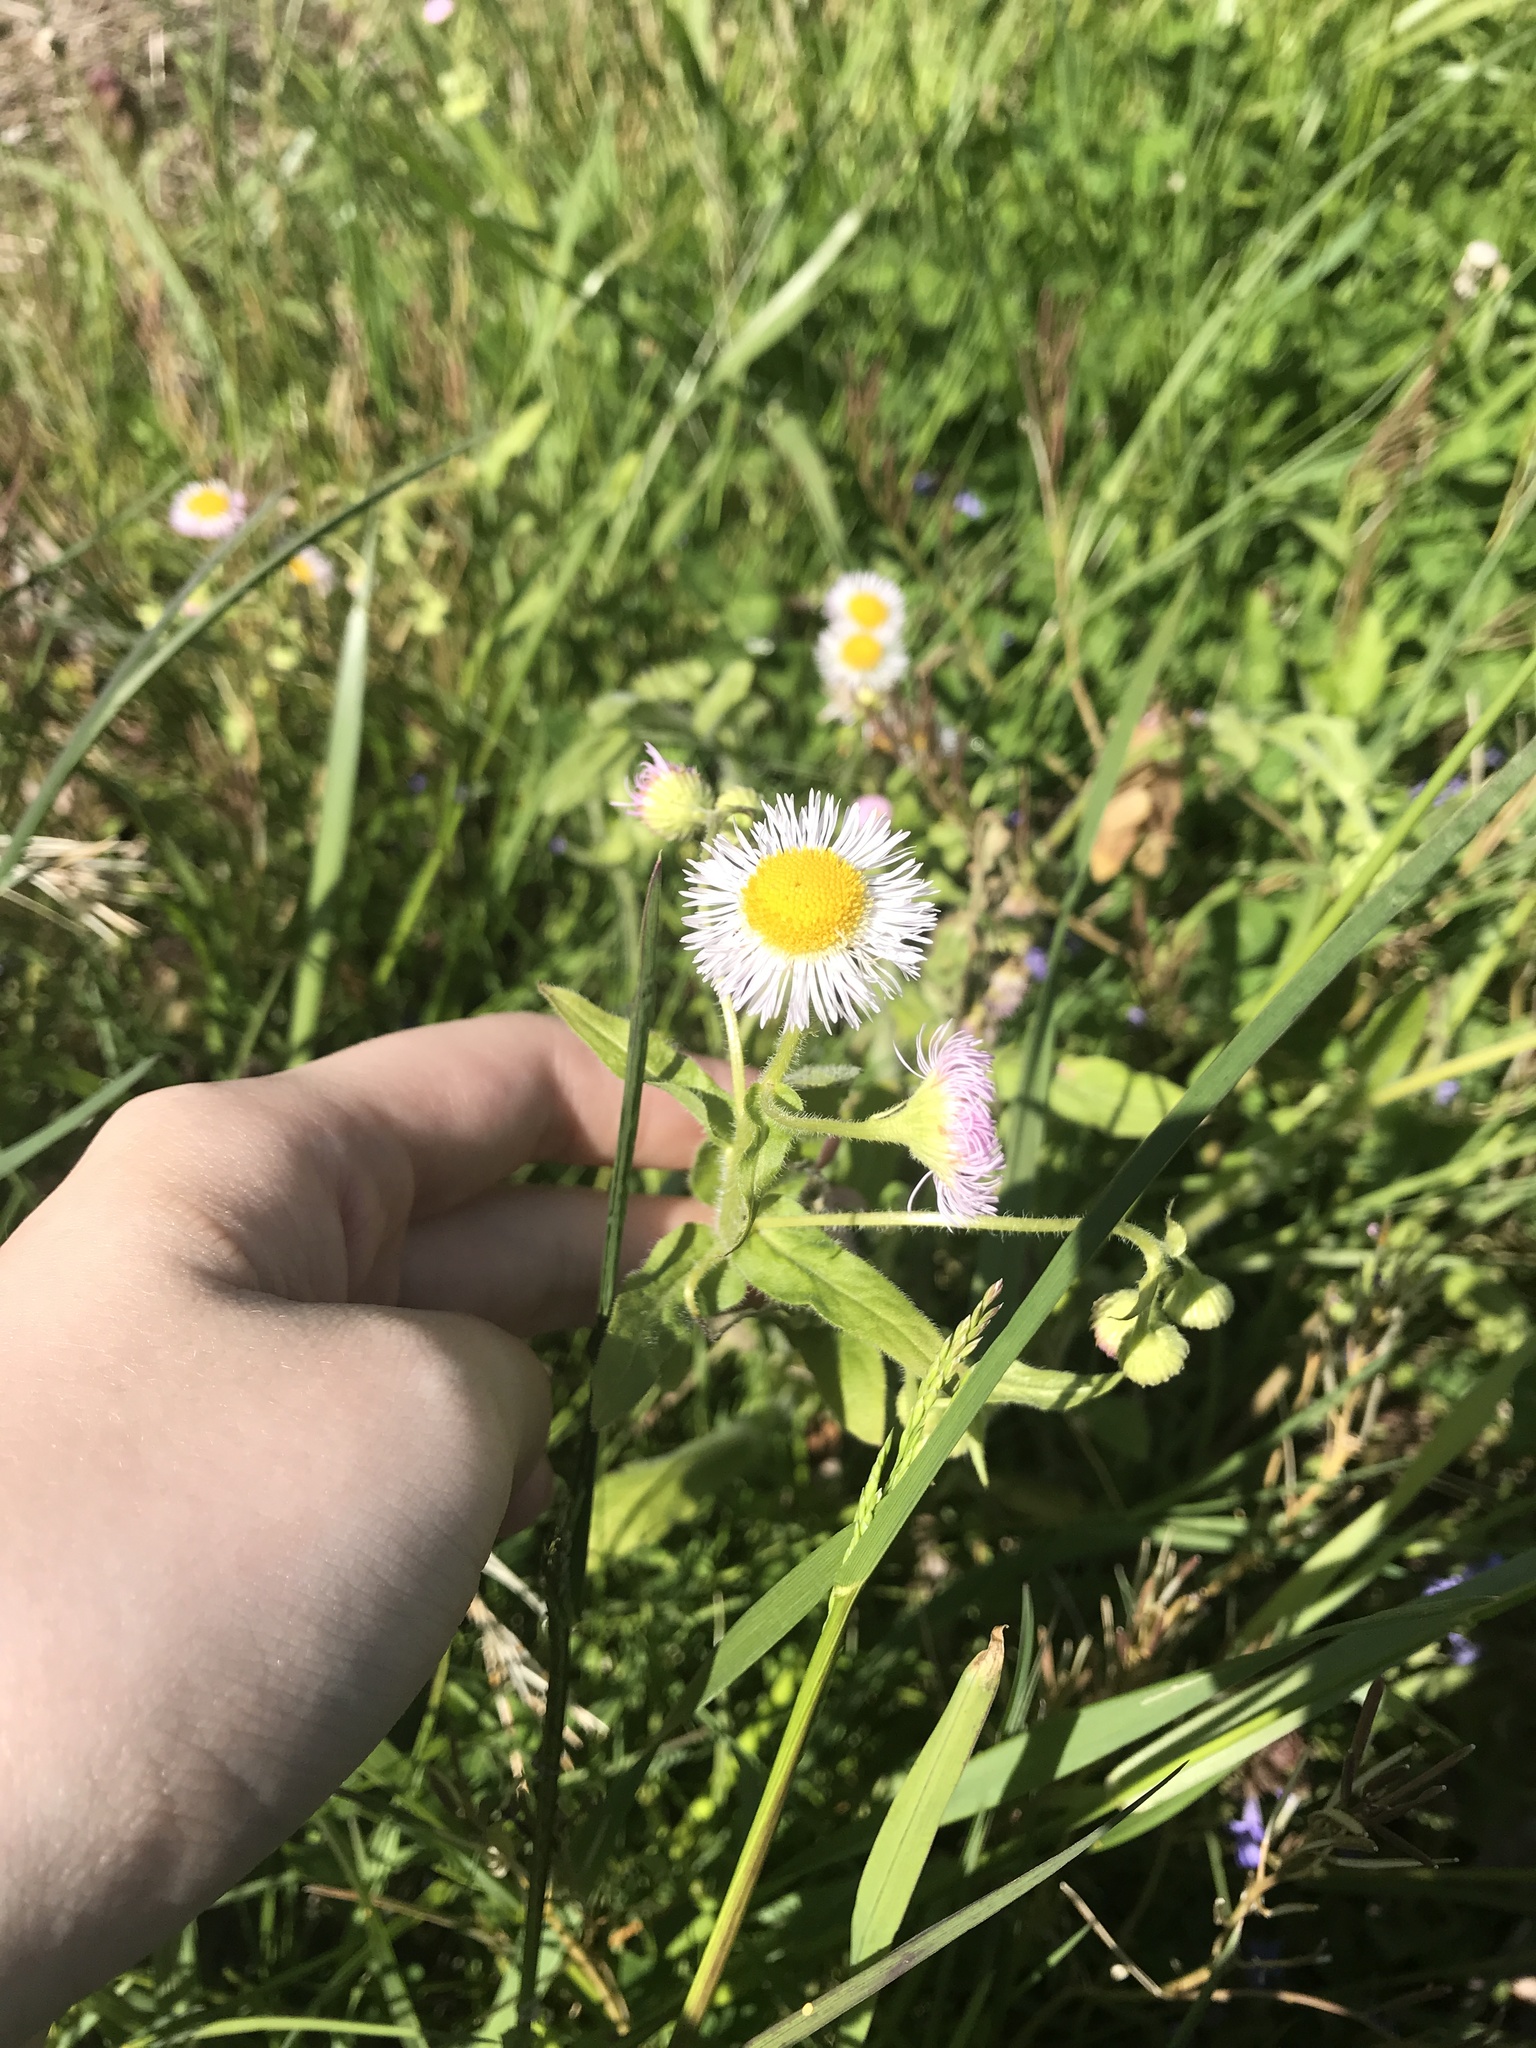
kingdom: Plantae
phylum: Tracheophyta
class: Magnoliopsida
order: Asterales
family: Asteraceae
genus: Erigeron
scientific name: Erigeron philadelphicus
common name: Robin's-plantain
